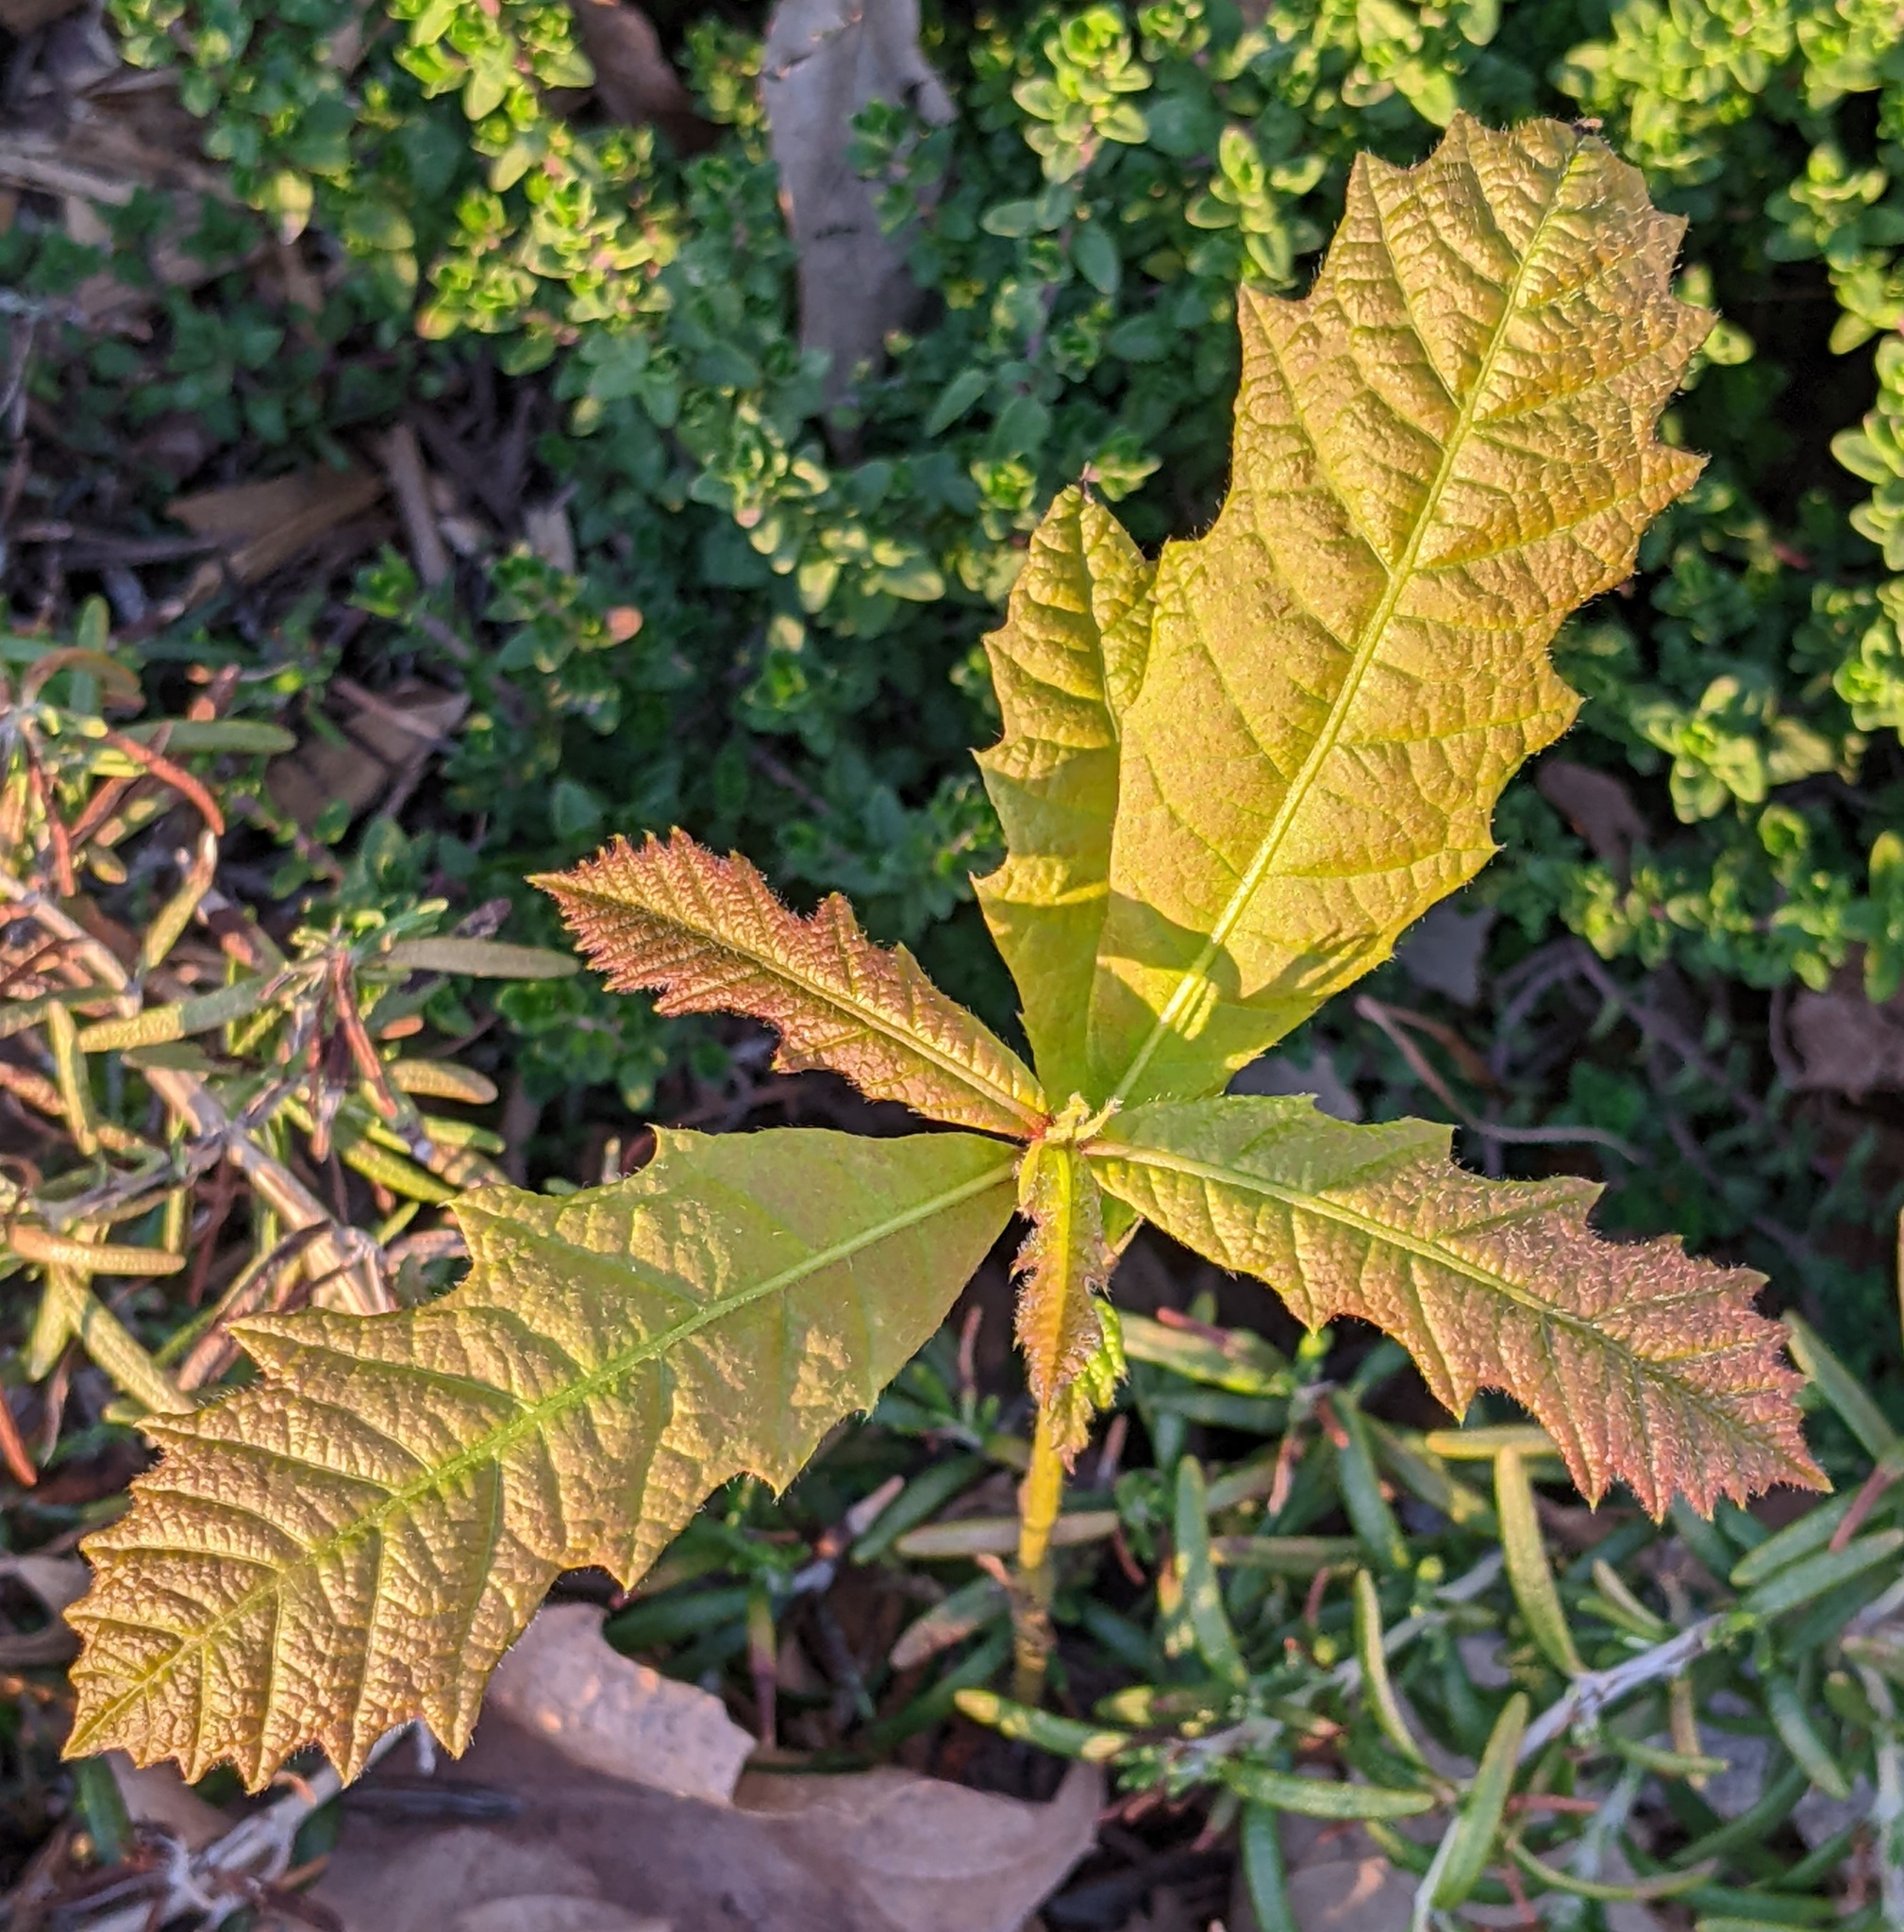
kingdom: Plantae
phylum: Tracheophyta
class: Magnoliopsida
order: Fagales
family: Fagaceae
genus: Quercus
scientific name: Quercus macrocarpa
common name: Bur oak
